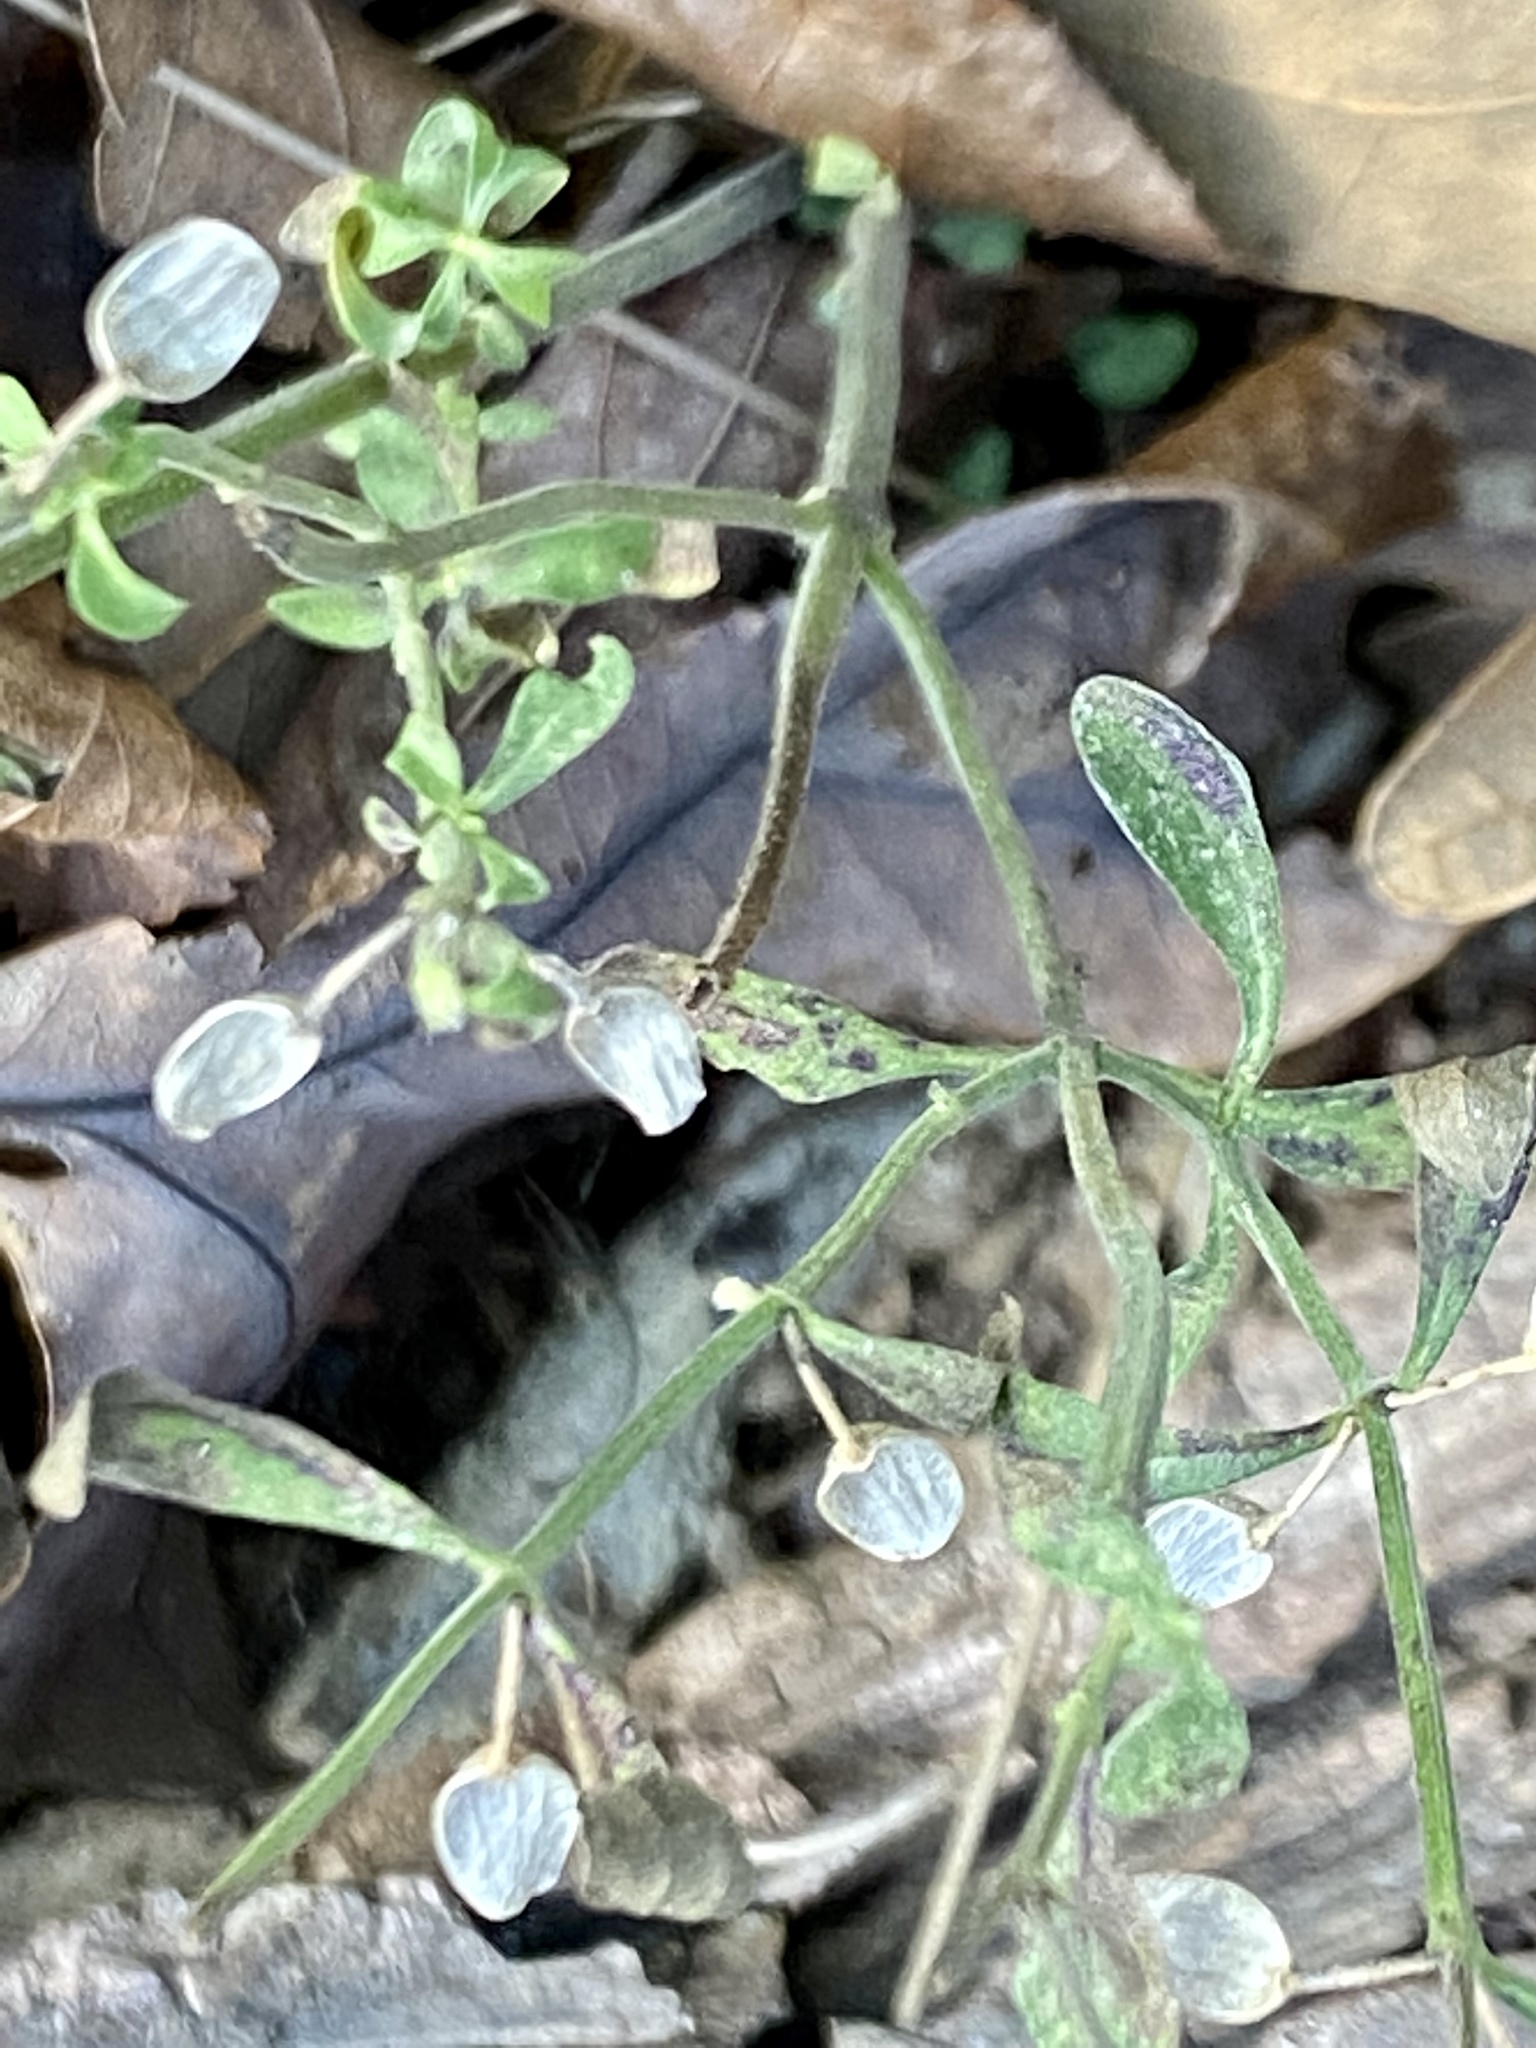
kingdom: Plantae
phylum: Tracheophyta
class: Magnoliopsida
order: Lamiales
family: Lamiaceae
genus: Scutellaria
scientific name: Scutellaria integrifolia
